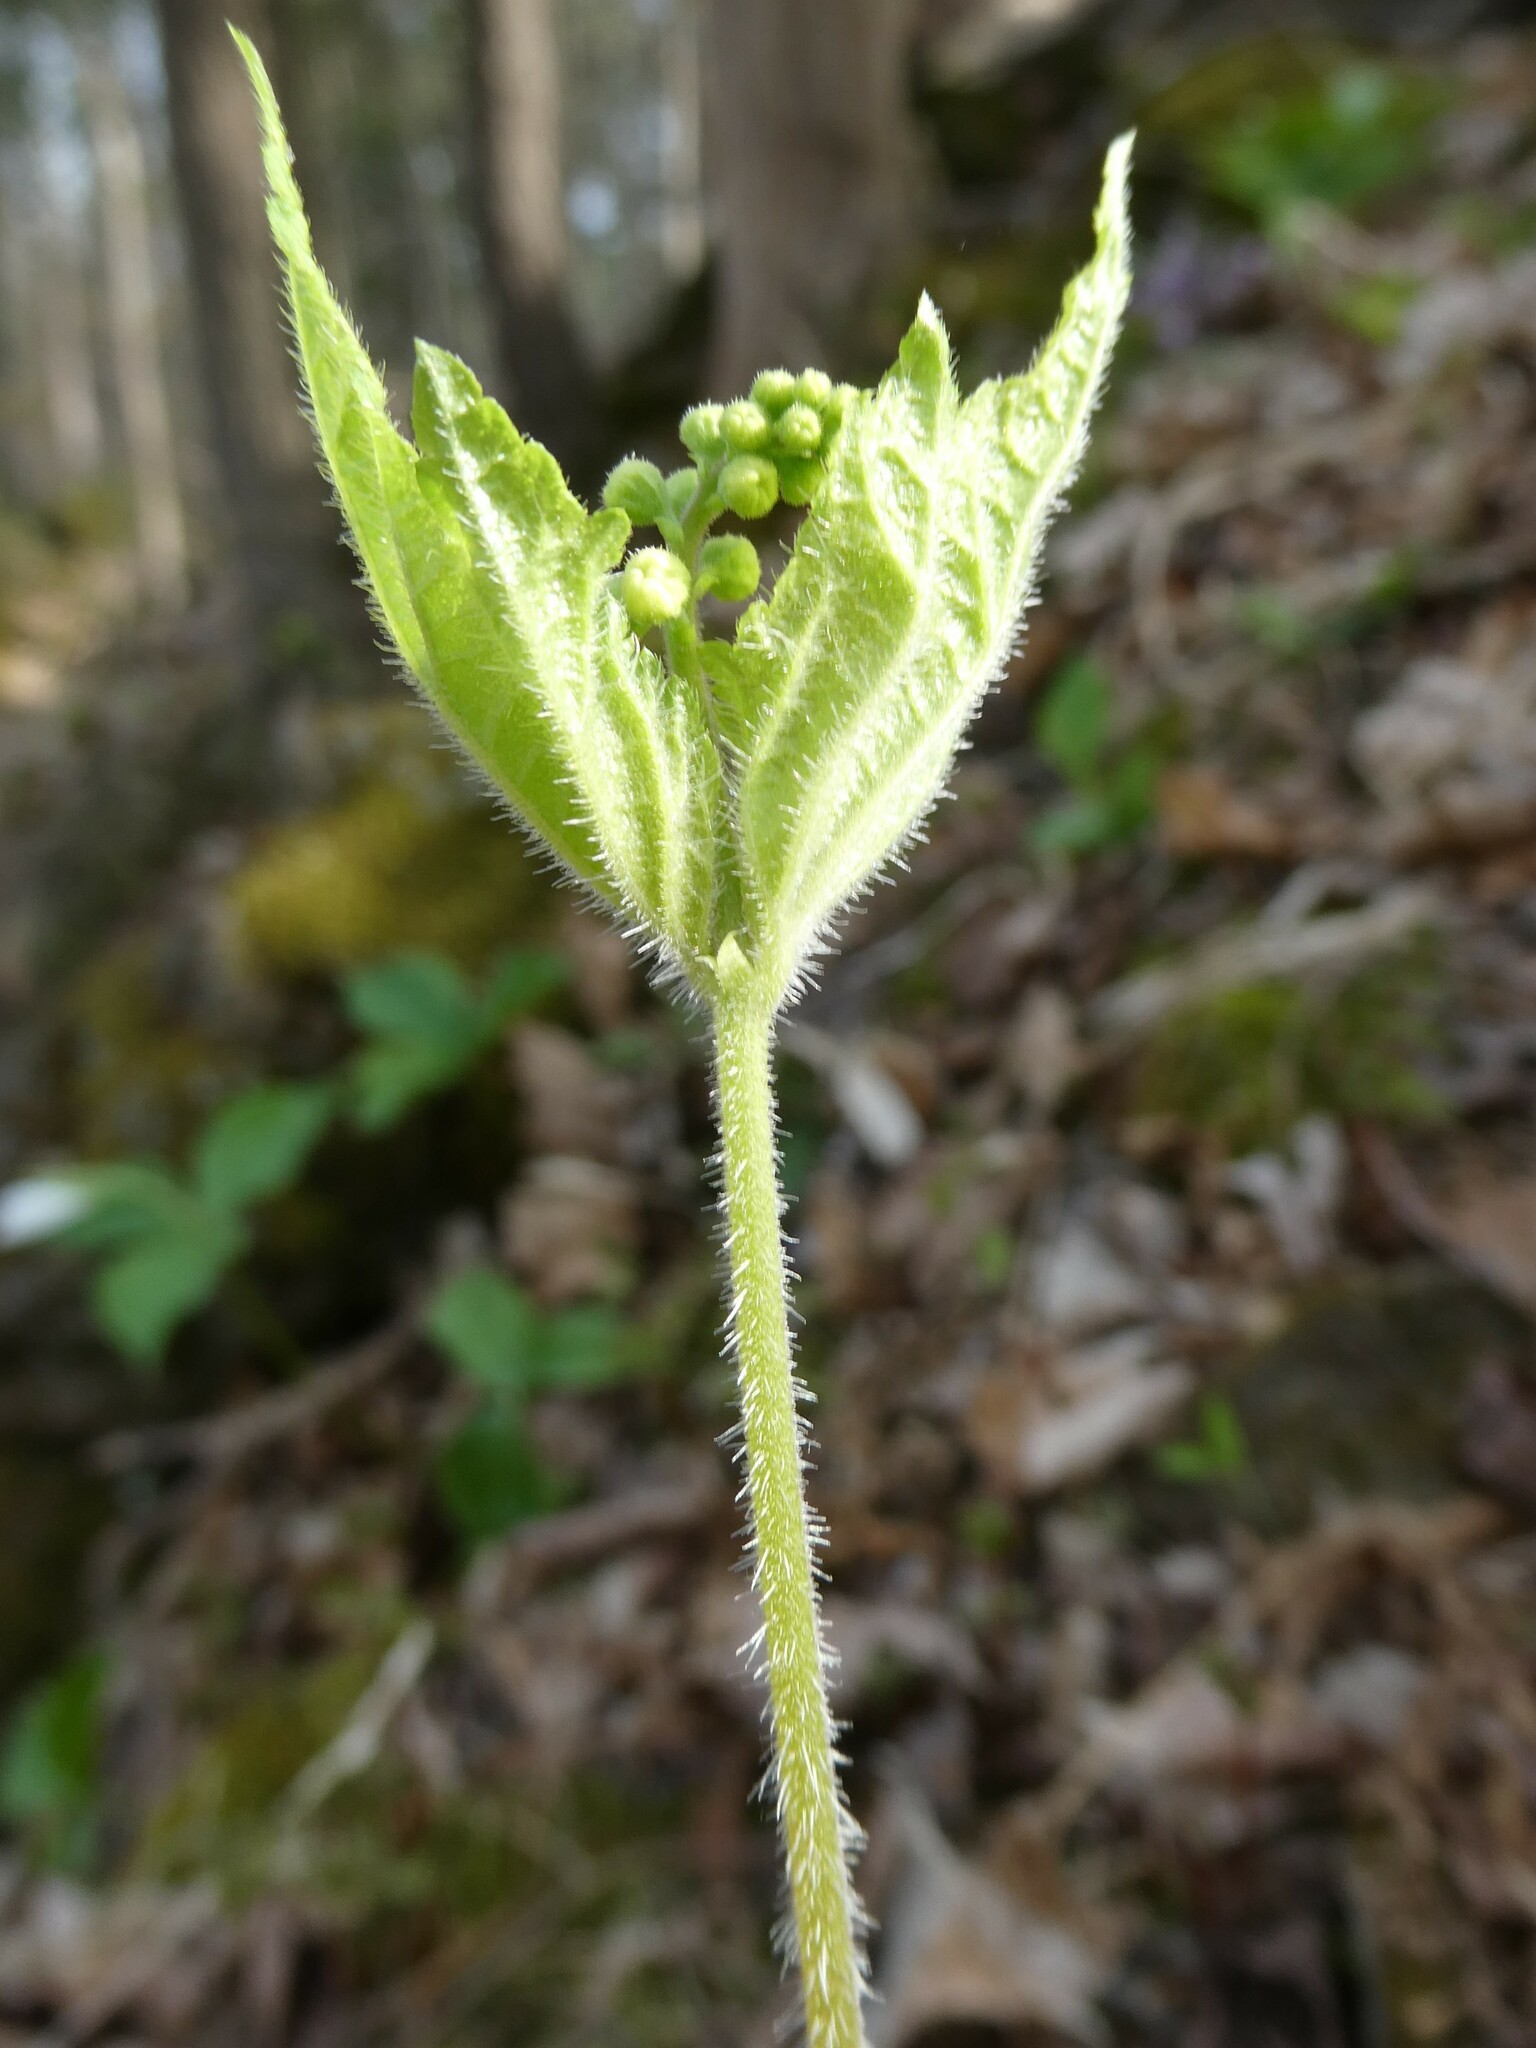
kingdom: Plantae
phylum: Tracheophyta
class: Magnoliopsida
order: Saxifragales
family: Saxifragaceae
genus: Mitella
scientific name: Mitella diphylla
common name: Coolwort
